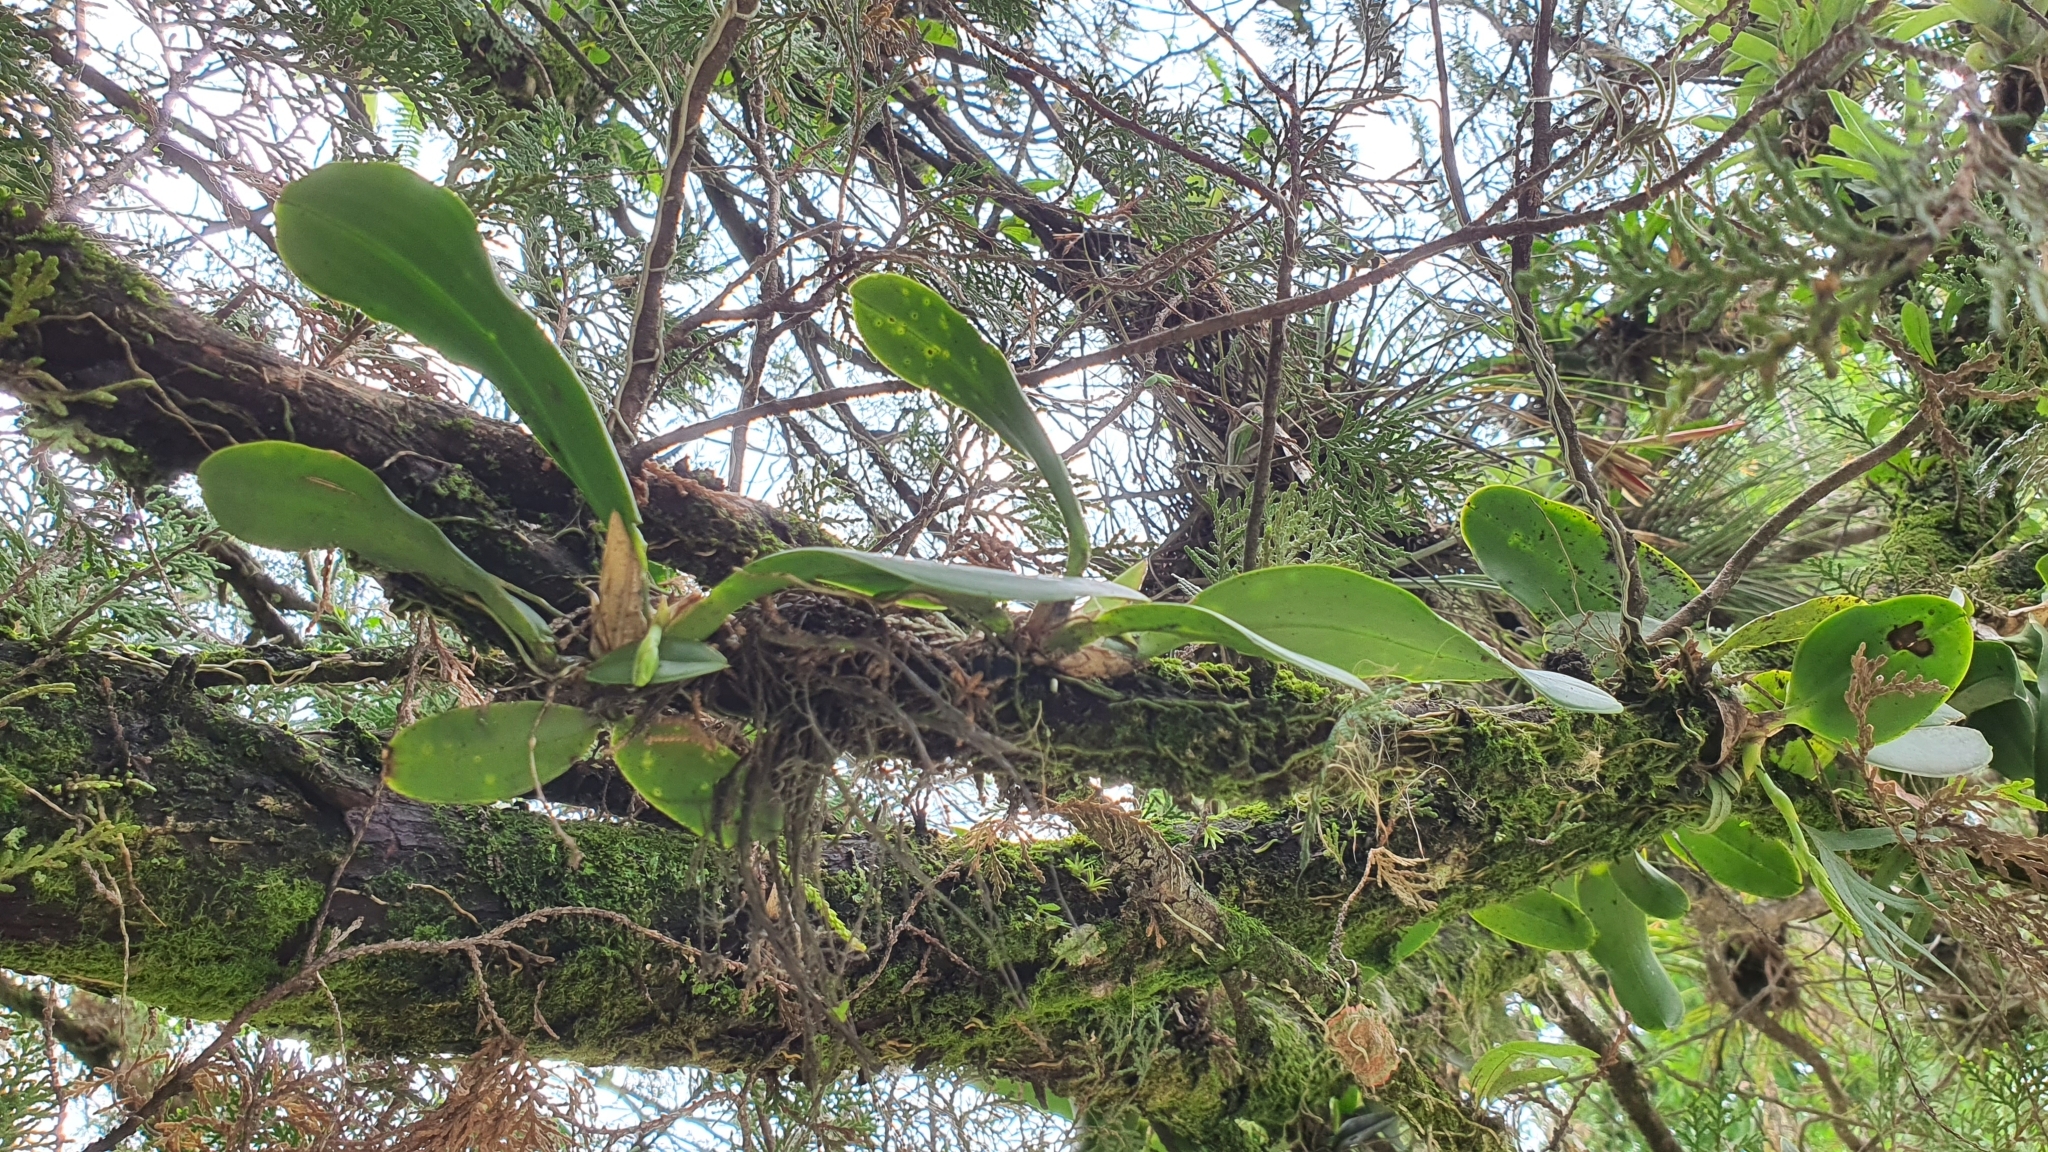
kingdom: Plantae
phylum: Tracheophyta
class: Liliopsida
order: Asparagales
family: Orchidaceae
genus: Notylia
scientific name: Notylia barkeri
